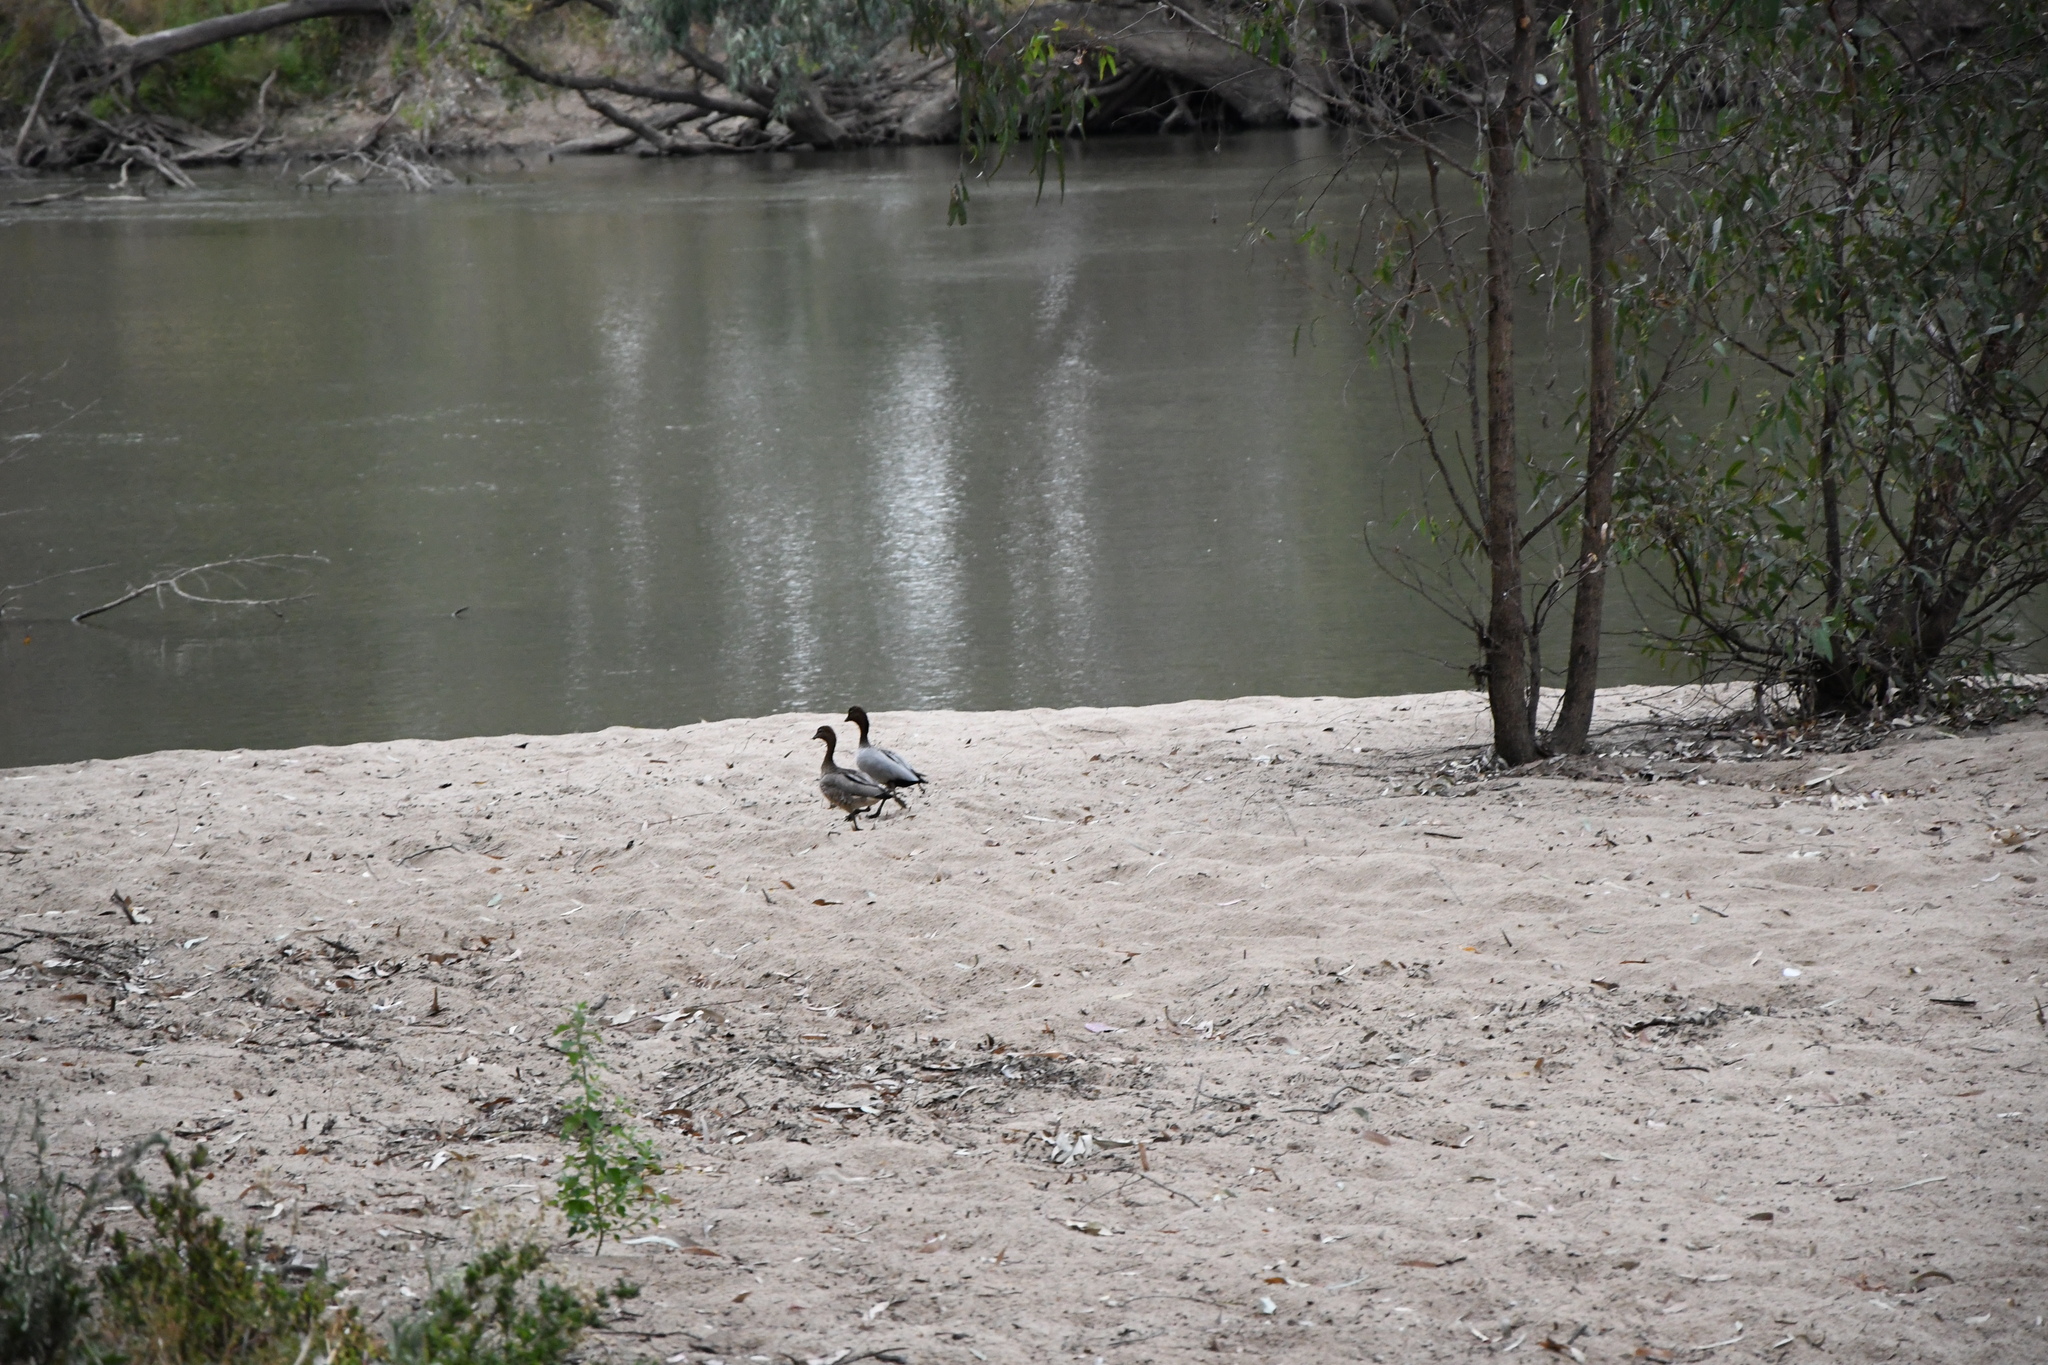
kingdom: Animalia
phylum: Chordata
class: Aves
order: Anseriformes
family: Anatidae
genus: Chenonetta
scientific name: Chenonetta jubata
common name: Maned duck
